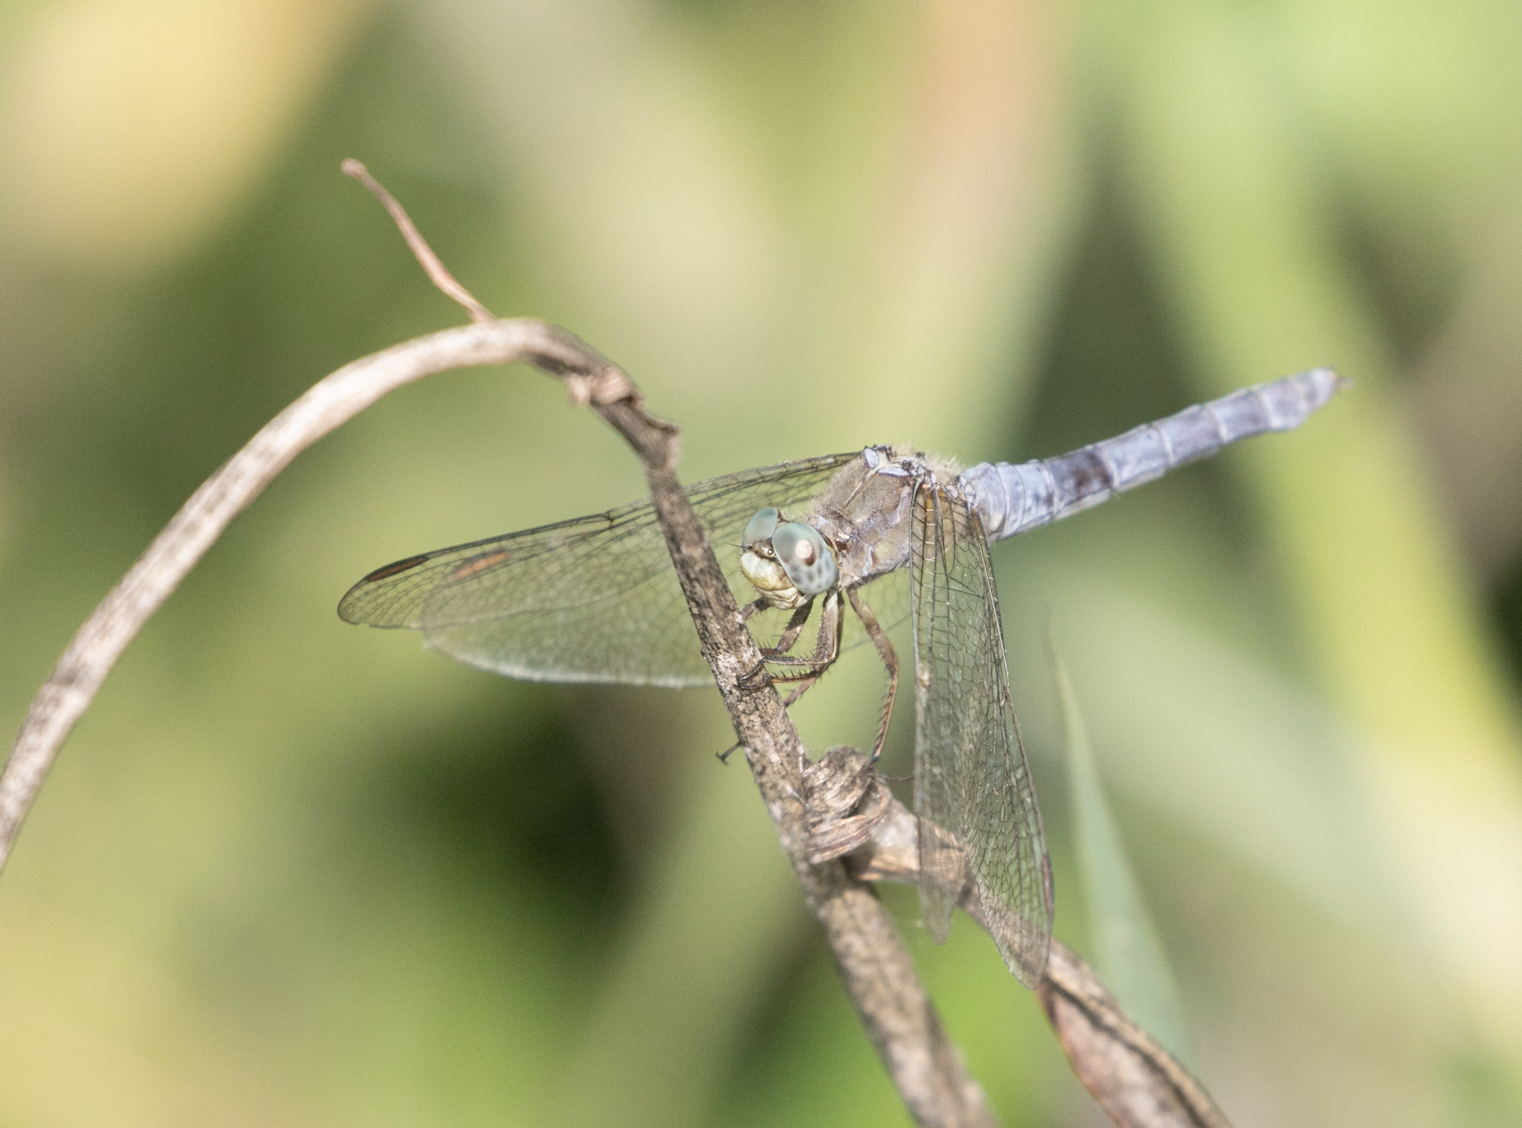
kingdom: Animalia
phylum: Arthropoda
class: Insecta
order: Odonata
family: Libellulidae
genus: Orthetrum
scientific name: Orthetrum coerulescens
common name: Keeled skimmer
